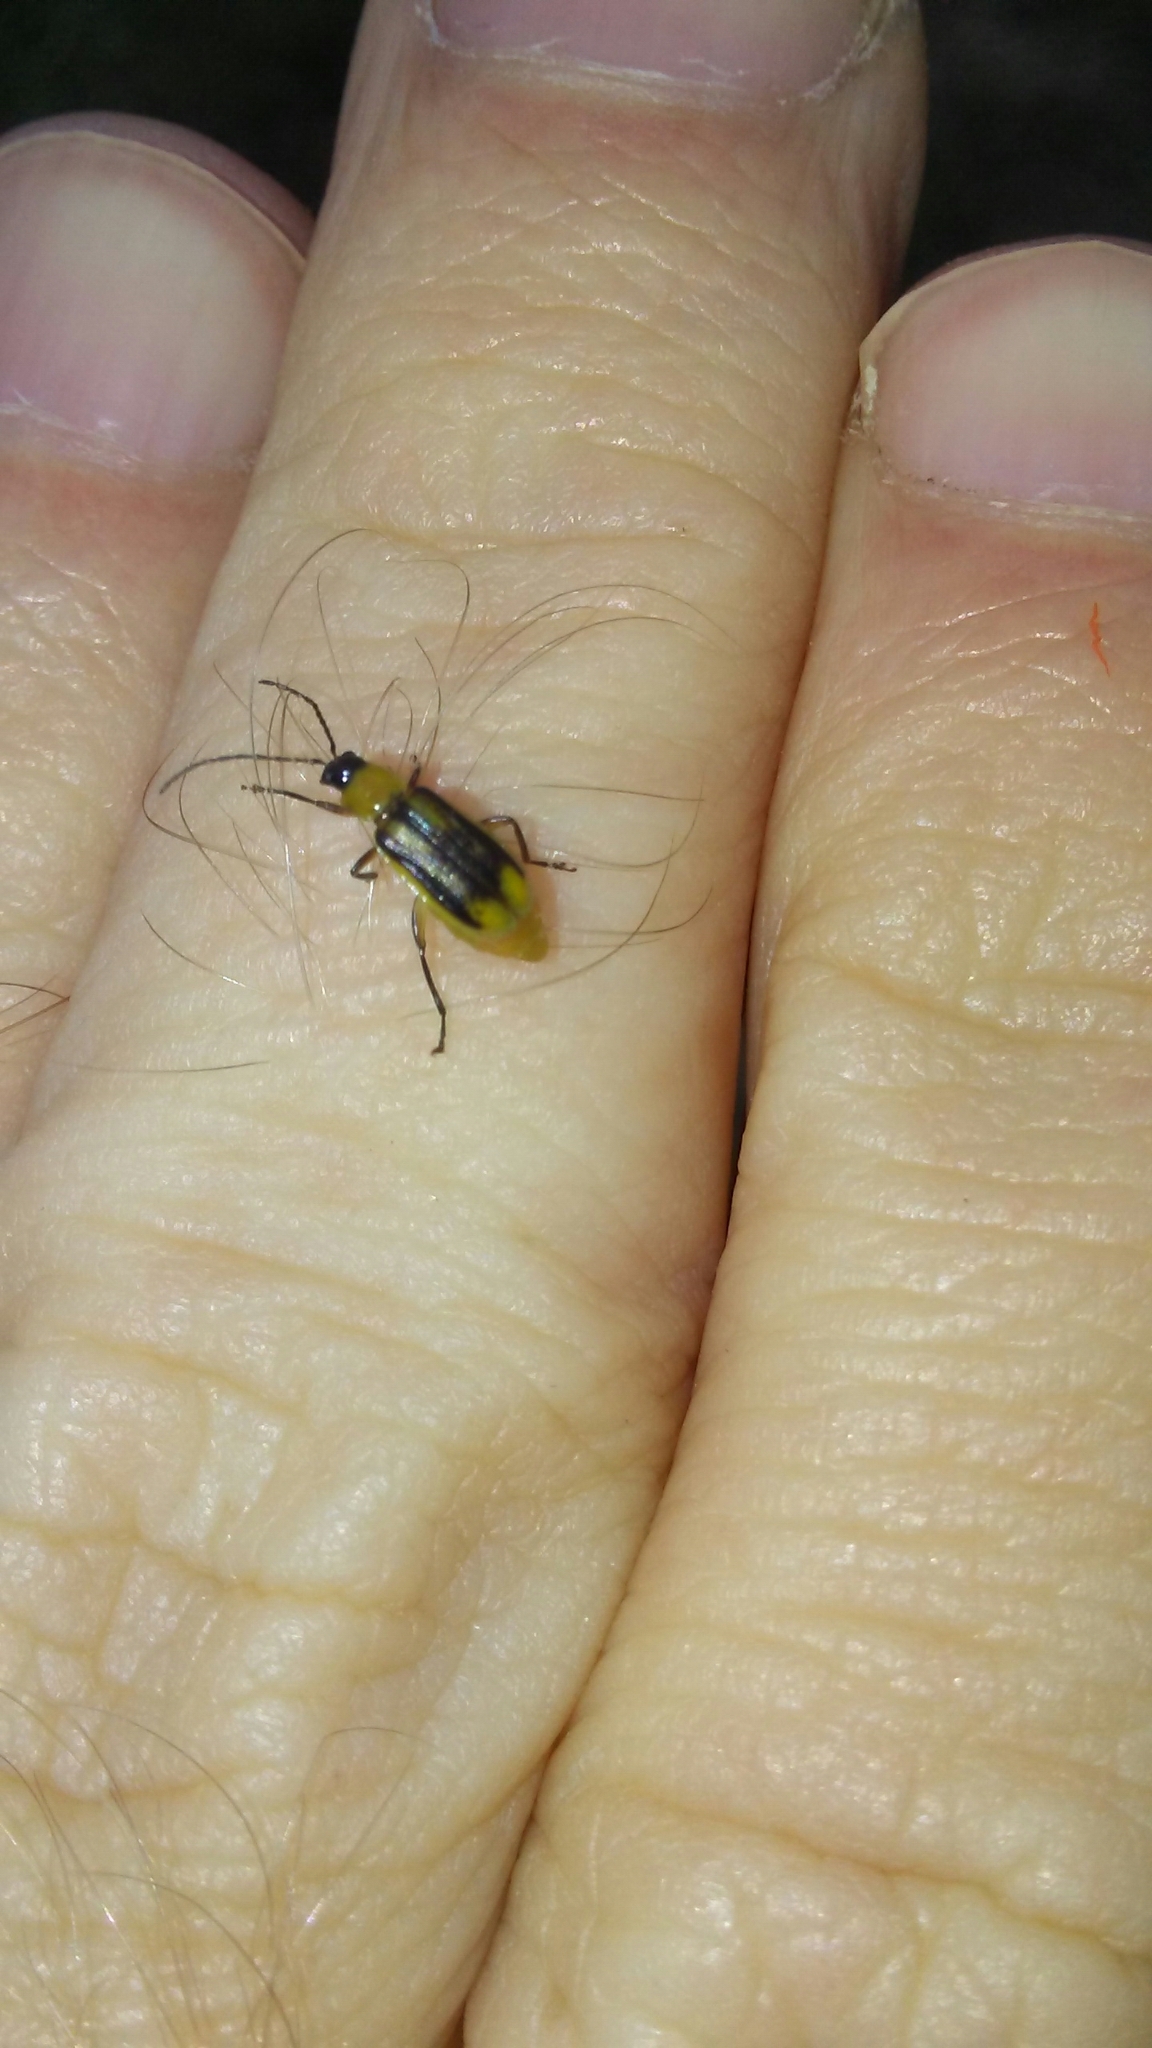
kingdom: Animalia
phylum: Arthropoda
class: Insecta
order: Coleoptera
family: Chrysomelidae
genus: Diabrotica
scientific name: Diabrotica virgifera
